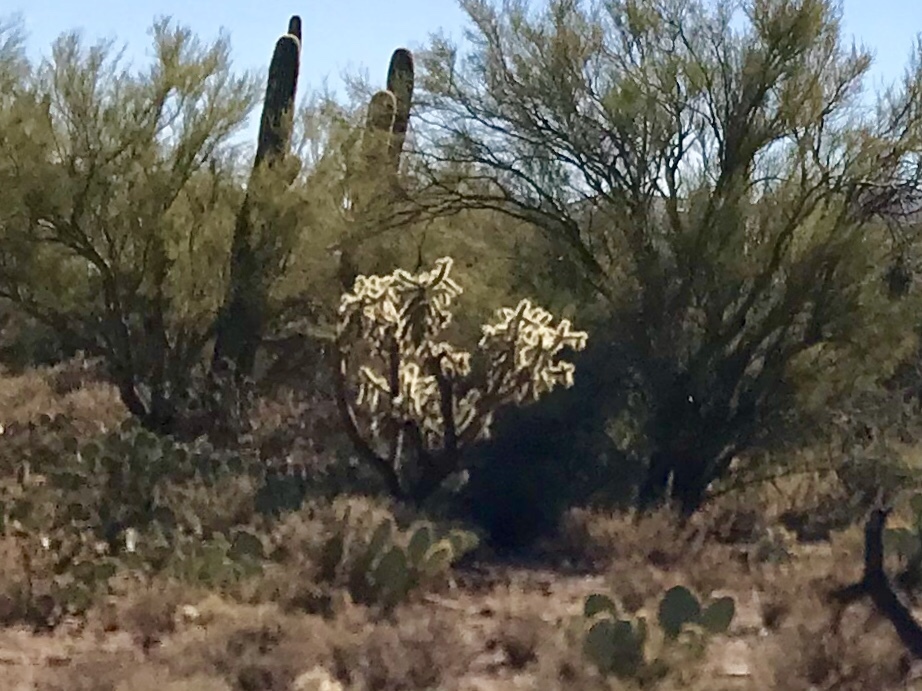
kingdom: Plantae
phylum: Tracheophyta
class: Magnoliopsida
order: Caryophyllales
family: Cactaceae
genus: Cylindropuntia
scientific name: Cylindropuntia fulgida
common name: Jumping cholla
